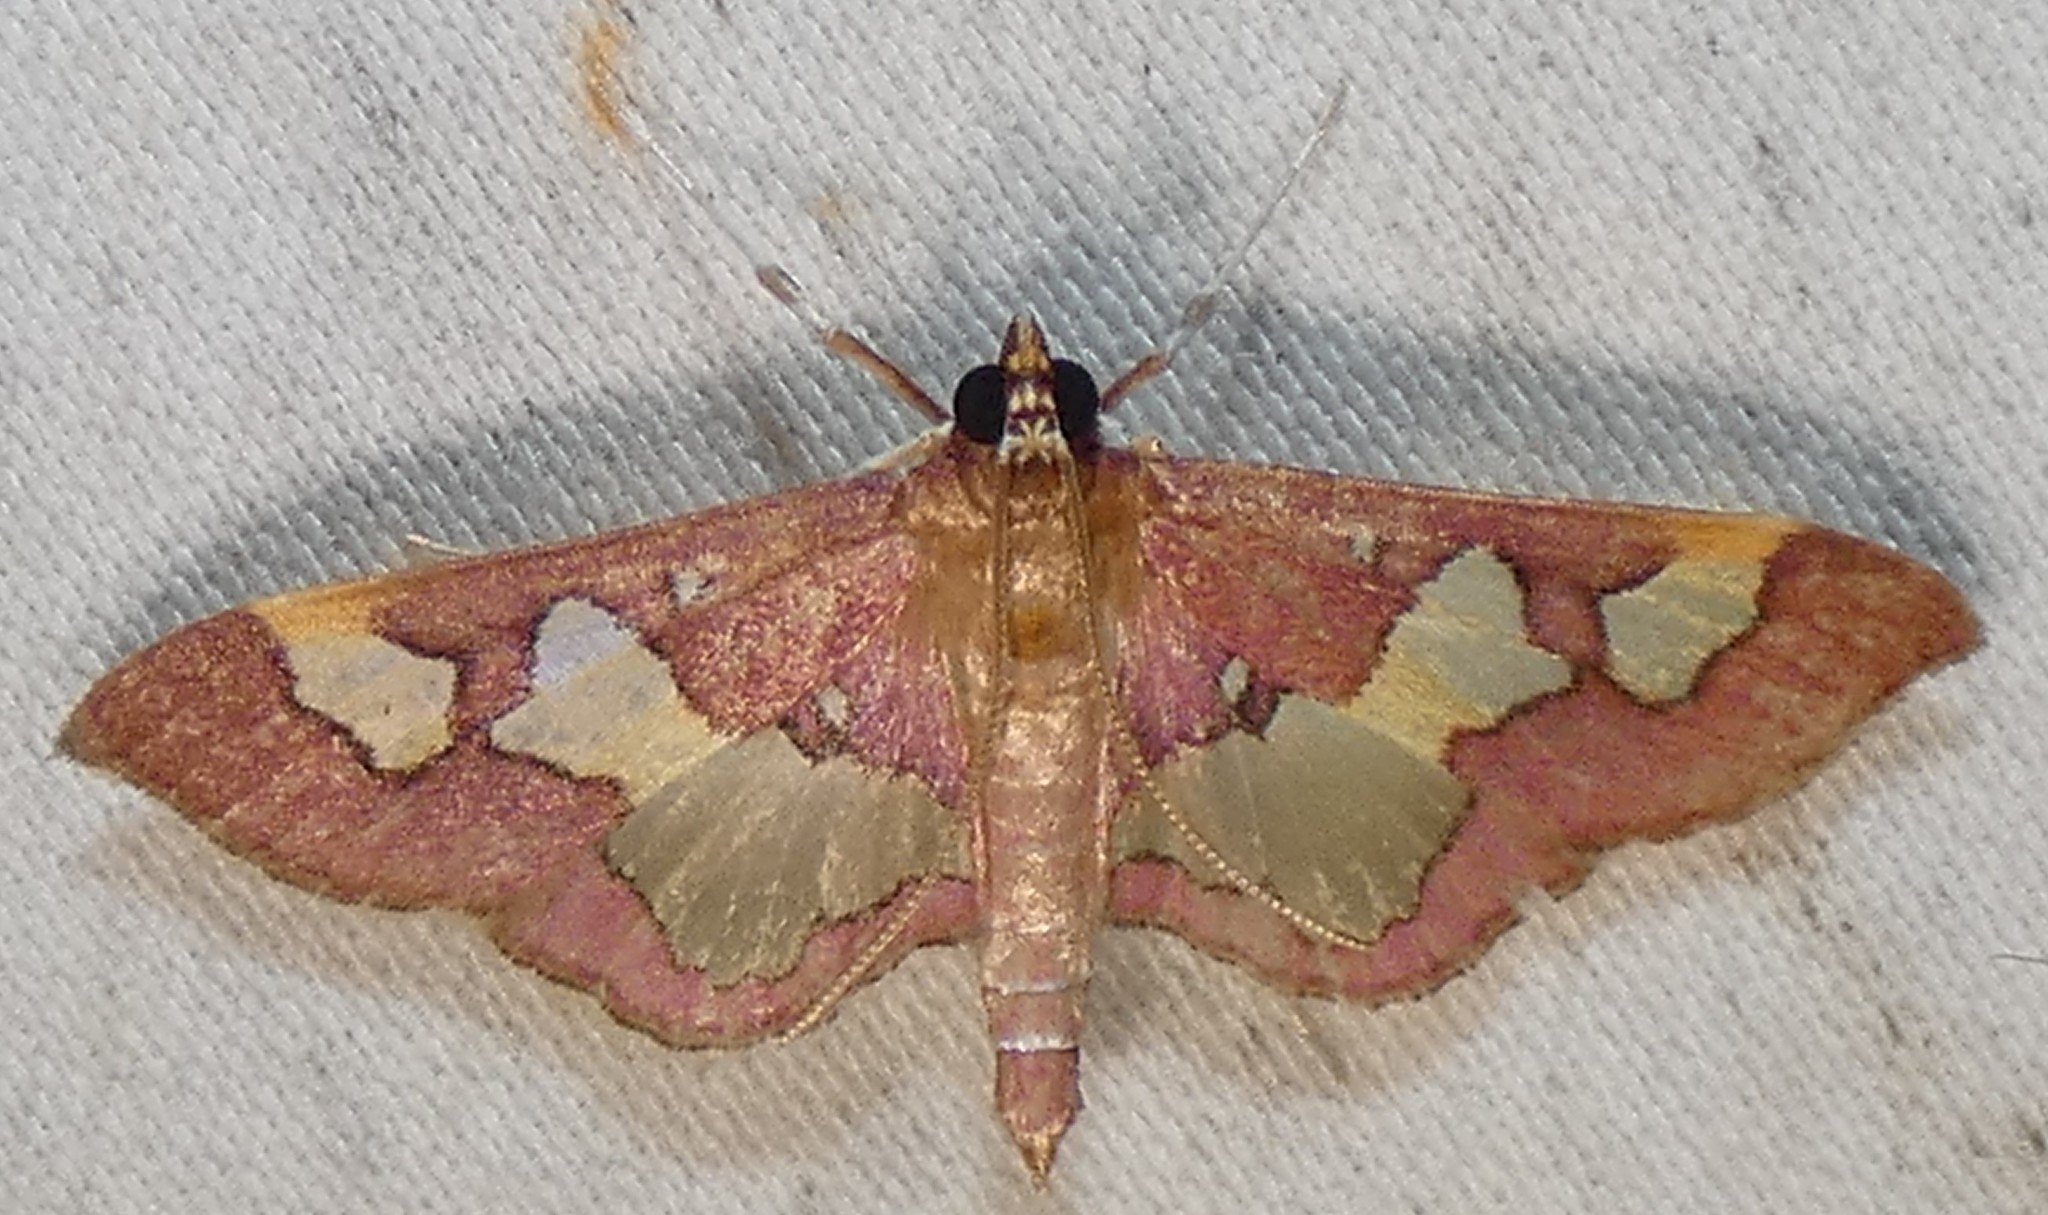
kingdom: Animalia
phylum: Arthropoda
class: Insecta
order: Lepidoptera
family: Crambidae
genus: Colomychus
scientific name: Colomychus talis
